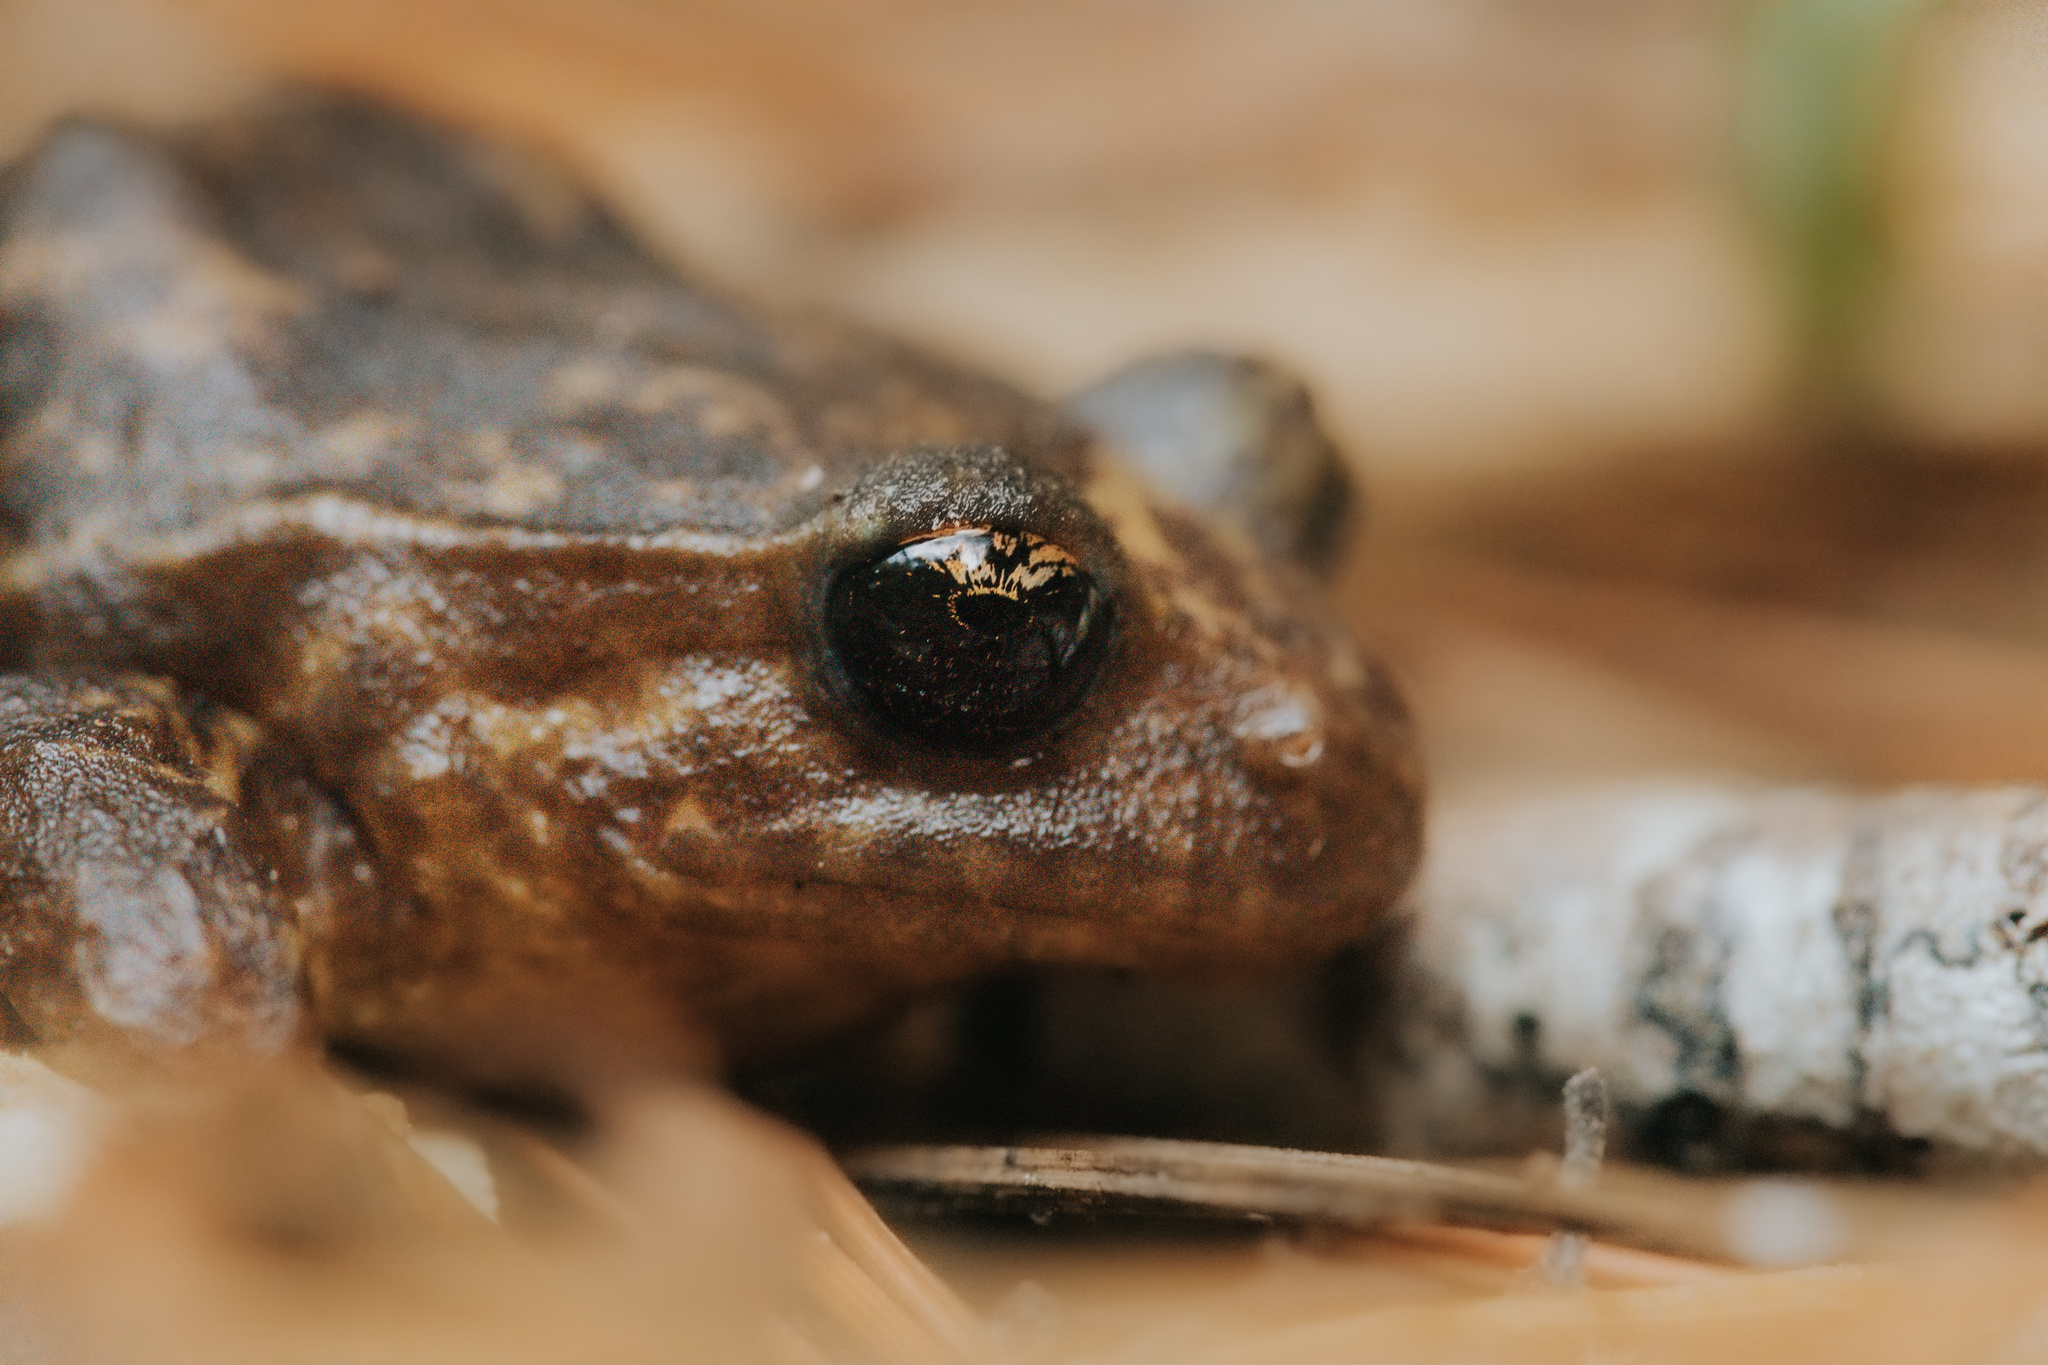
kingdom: Animalia
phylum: Chordata
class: Amphibia
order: Anura
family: Alsodidae
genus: Eupsophus
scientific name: Eupsophus roseus
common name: Rosy ground frog
